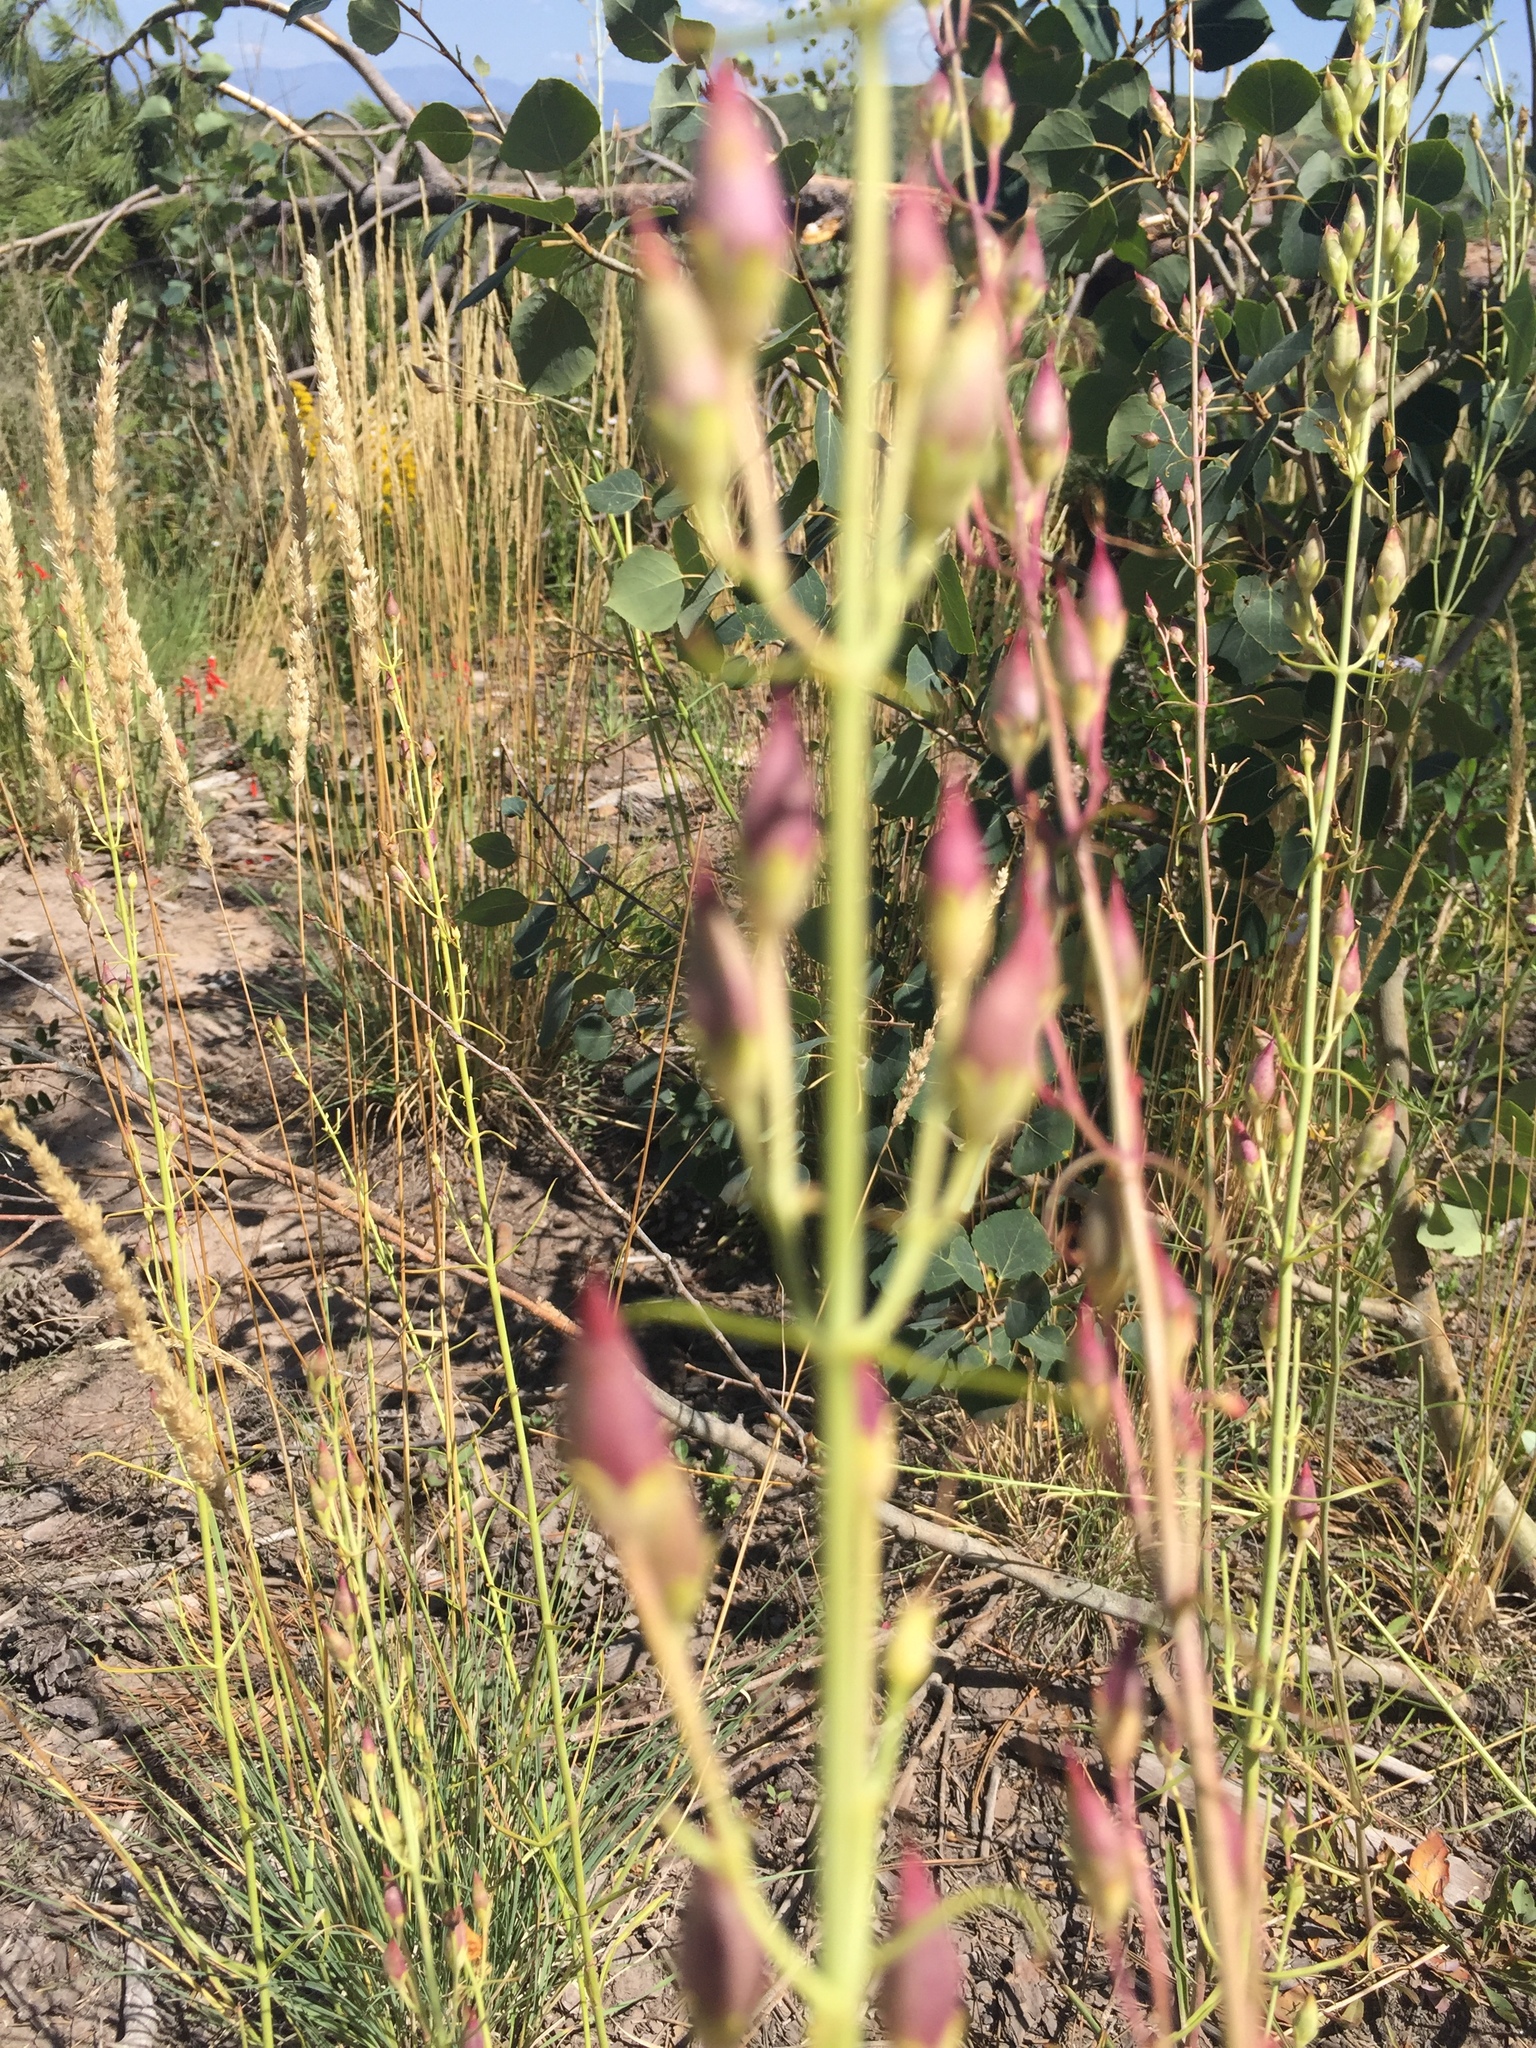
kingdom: Plantae
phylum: Tracheophyta
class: Magnoliopsida
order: Lamiales
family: Plantaginaceae
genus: Penstemon
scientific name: Penstemon barbatus
